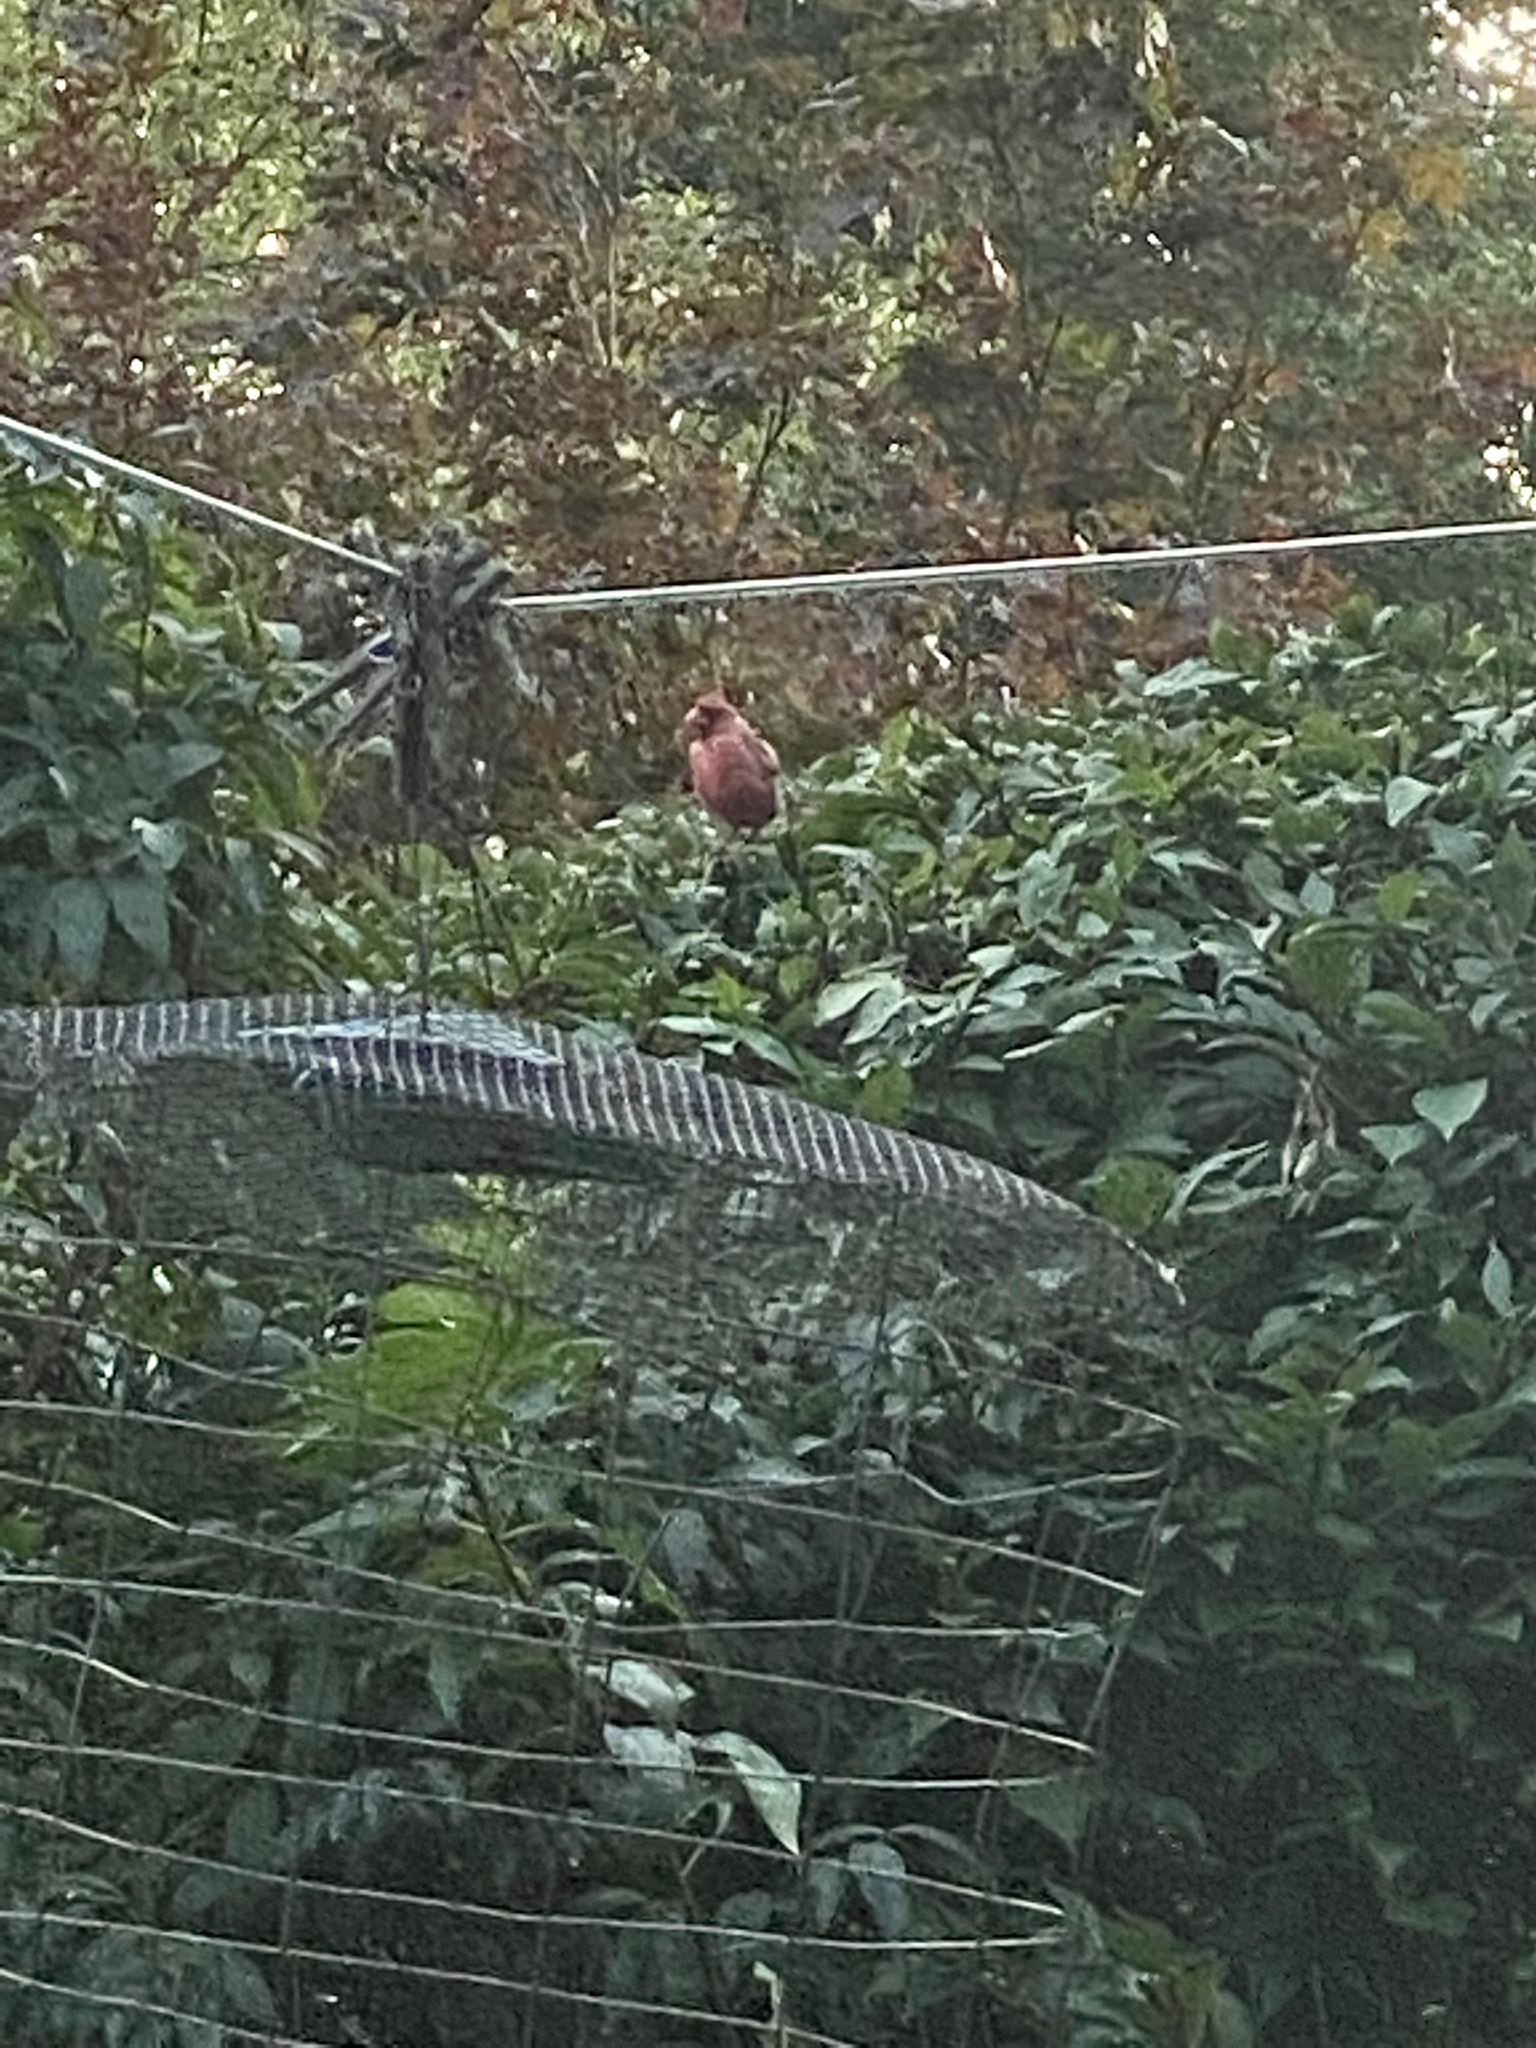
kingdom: Animalia
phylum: Chordata
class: Aves
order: Passeriformes
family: Cardinalidae
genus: Cardinalis
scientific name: Cardinalis cardinalis
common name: Northern cardinal
